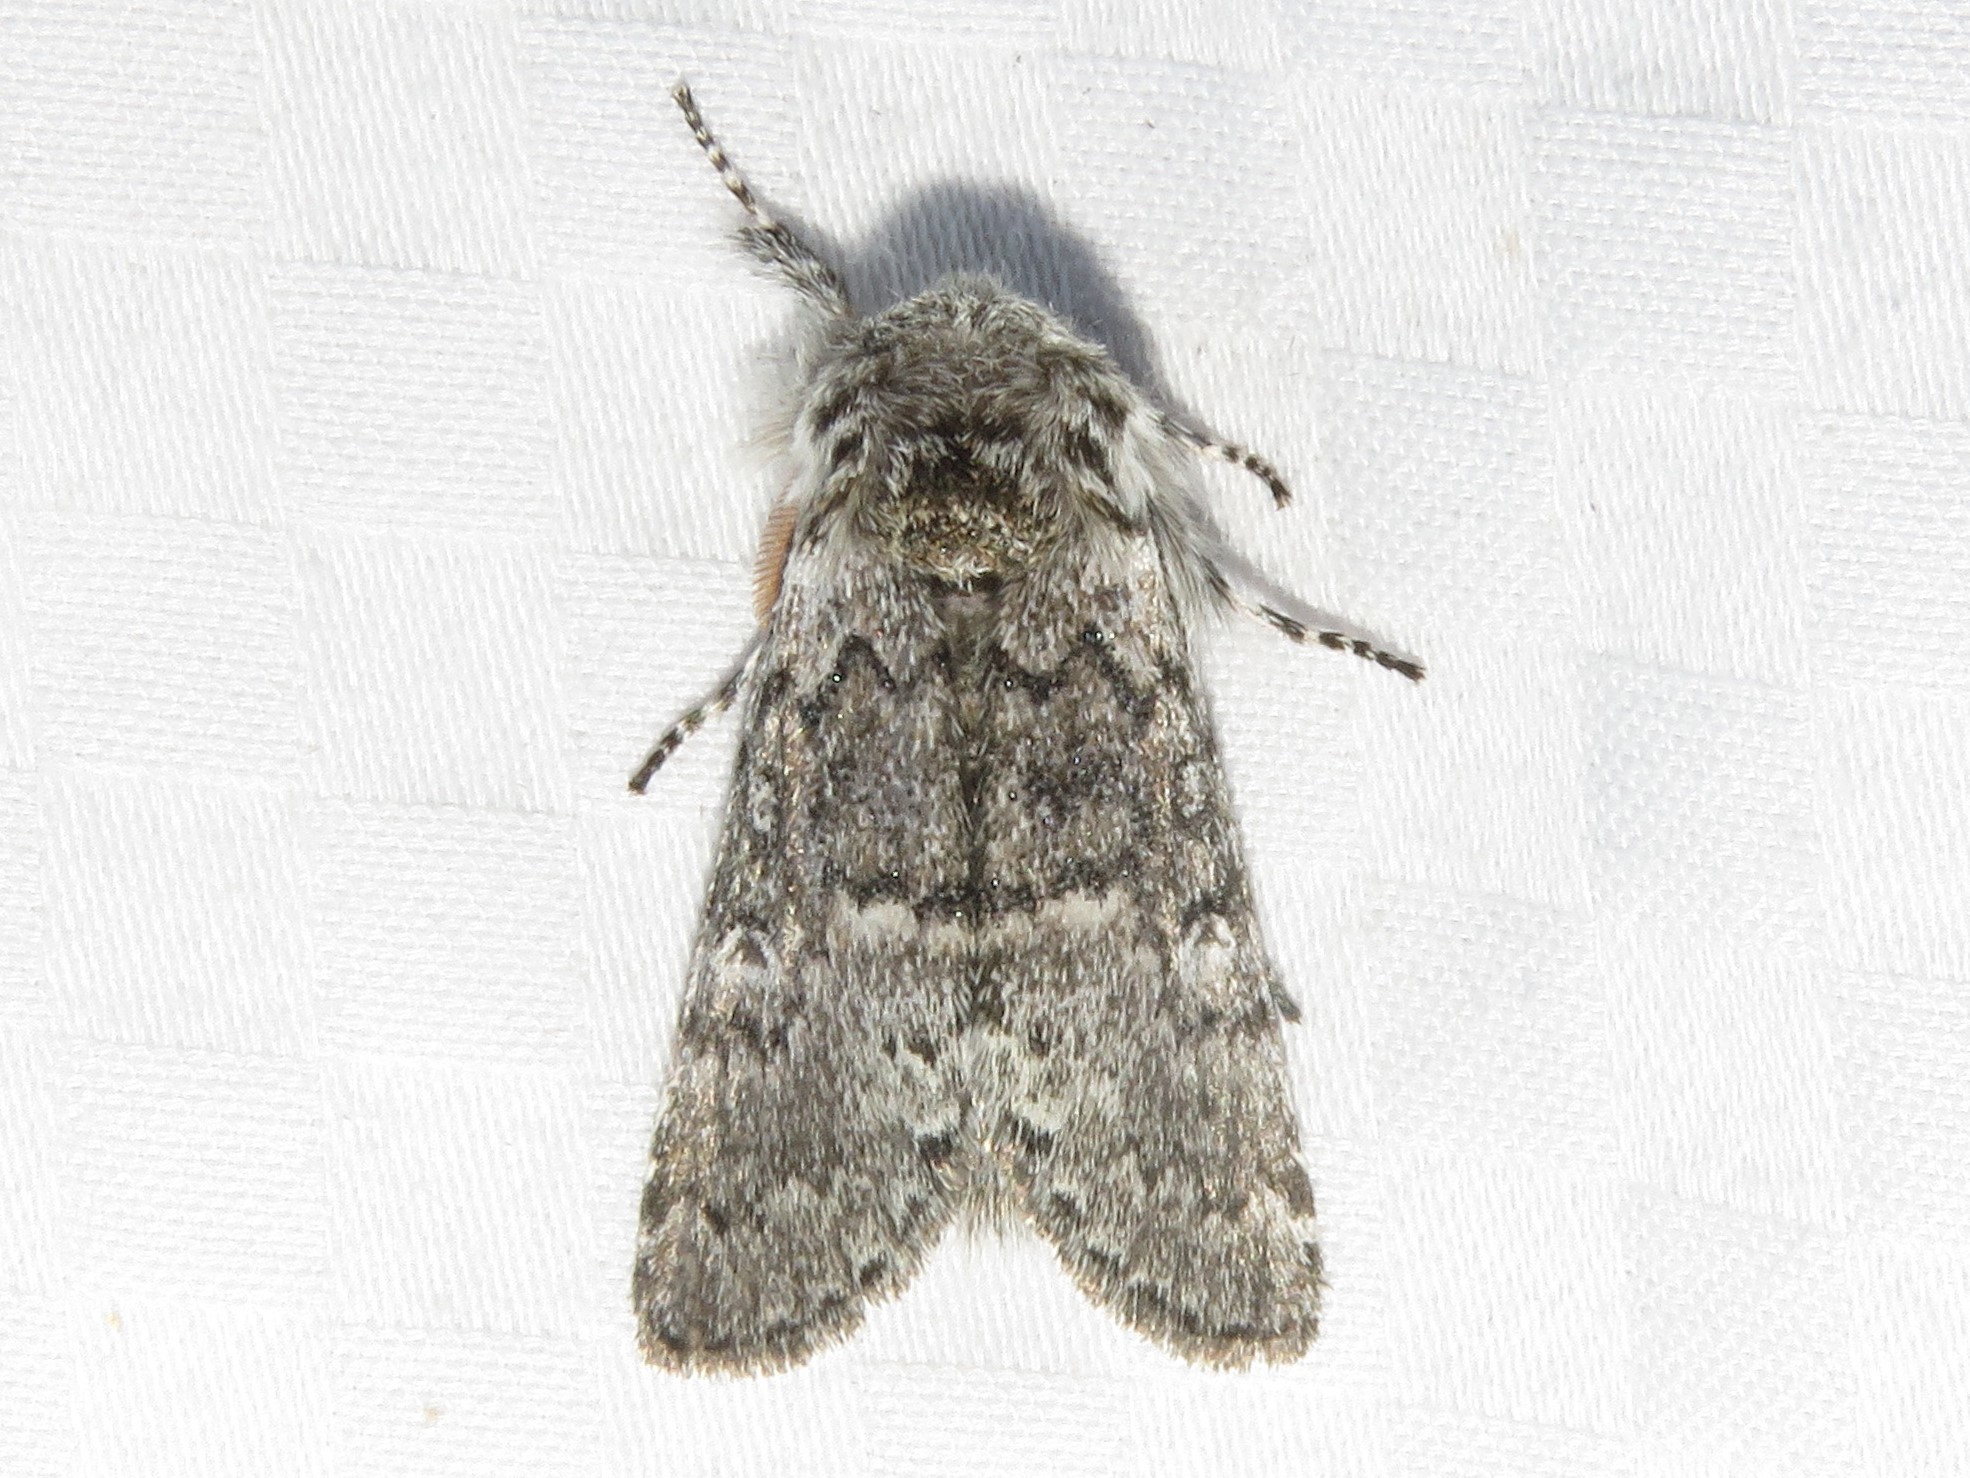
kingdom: Animalia
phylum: Arthropoda
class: Insecta
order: Lepidoptera
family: Noctuidae
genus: Colocasia
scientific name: Colocasia propinquilinea
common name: Close-banded demas
